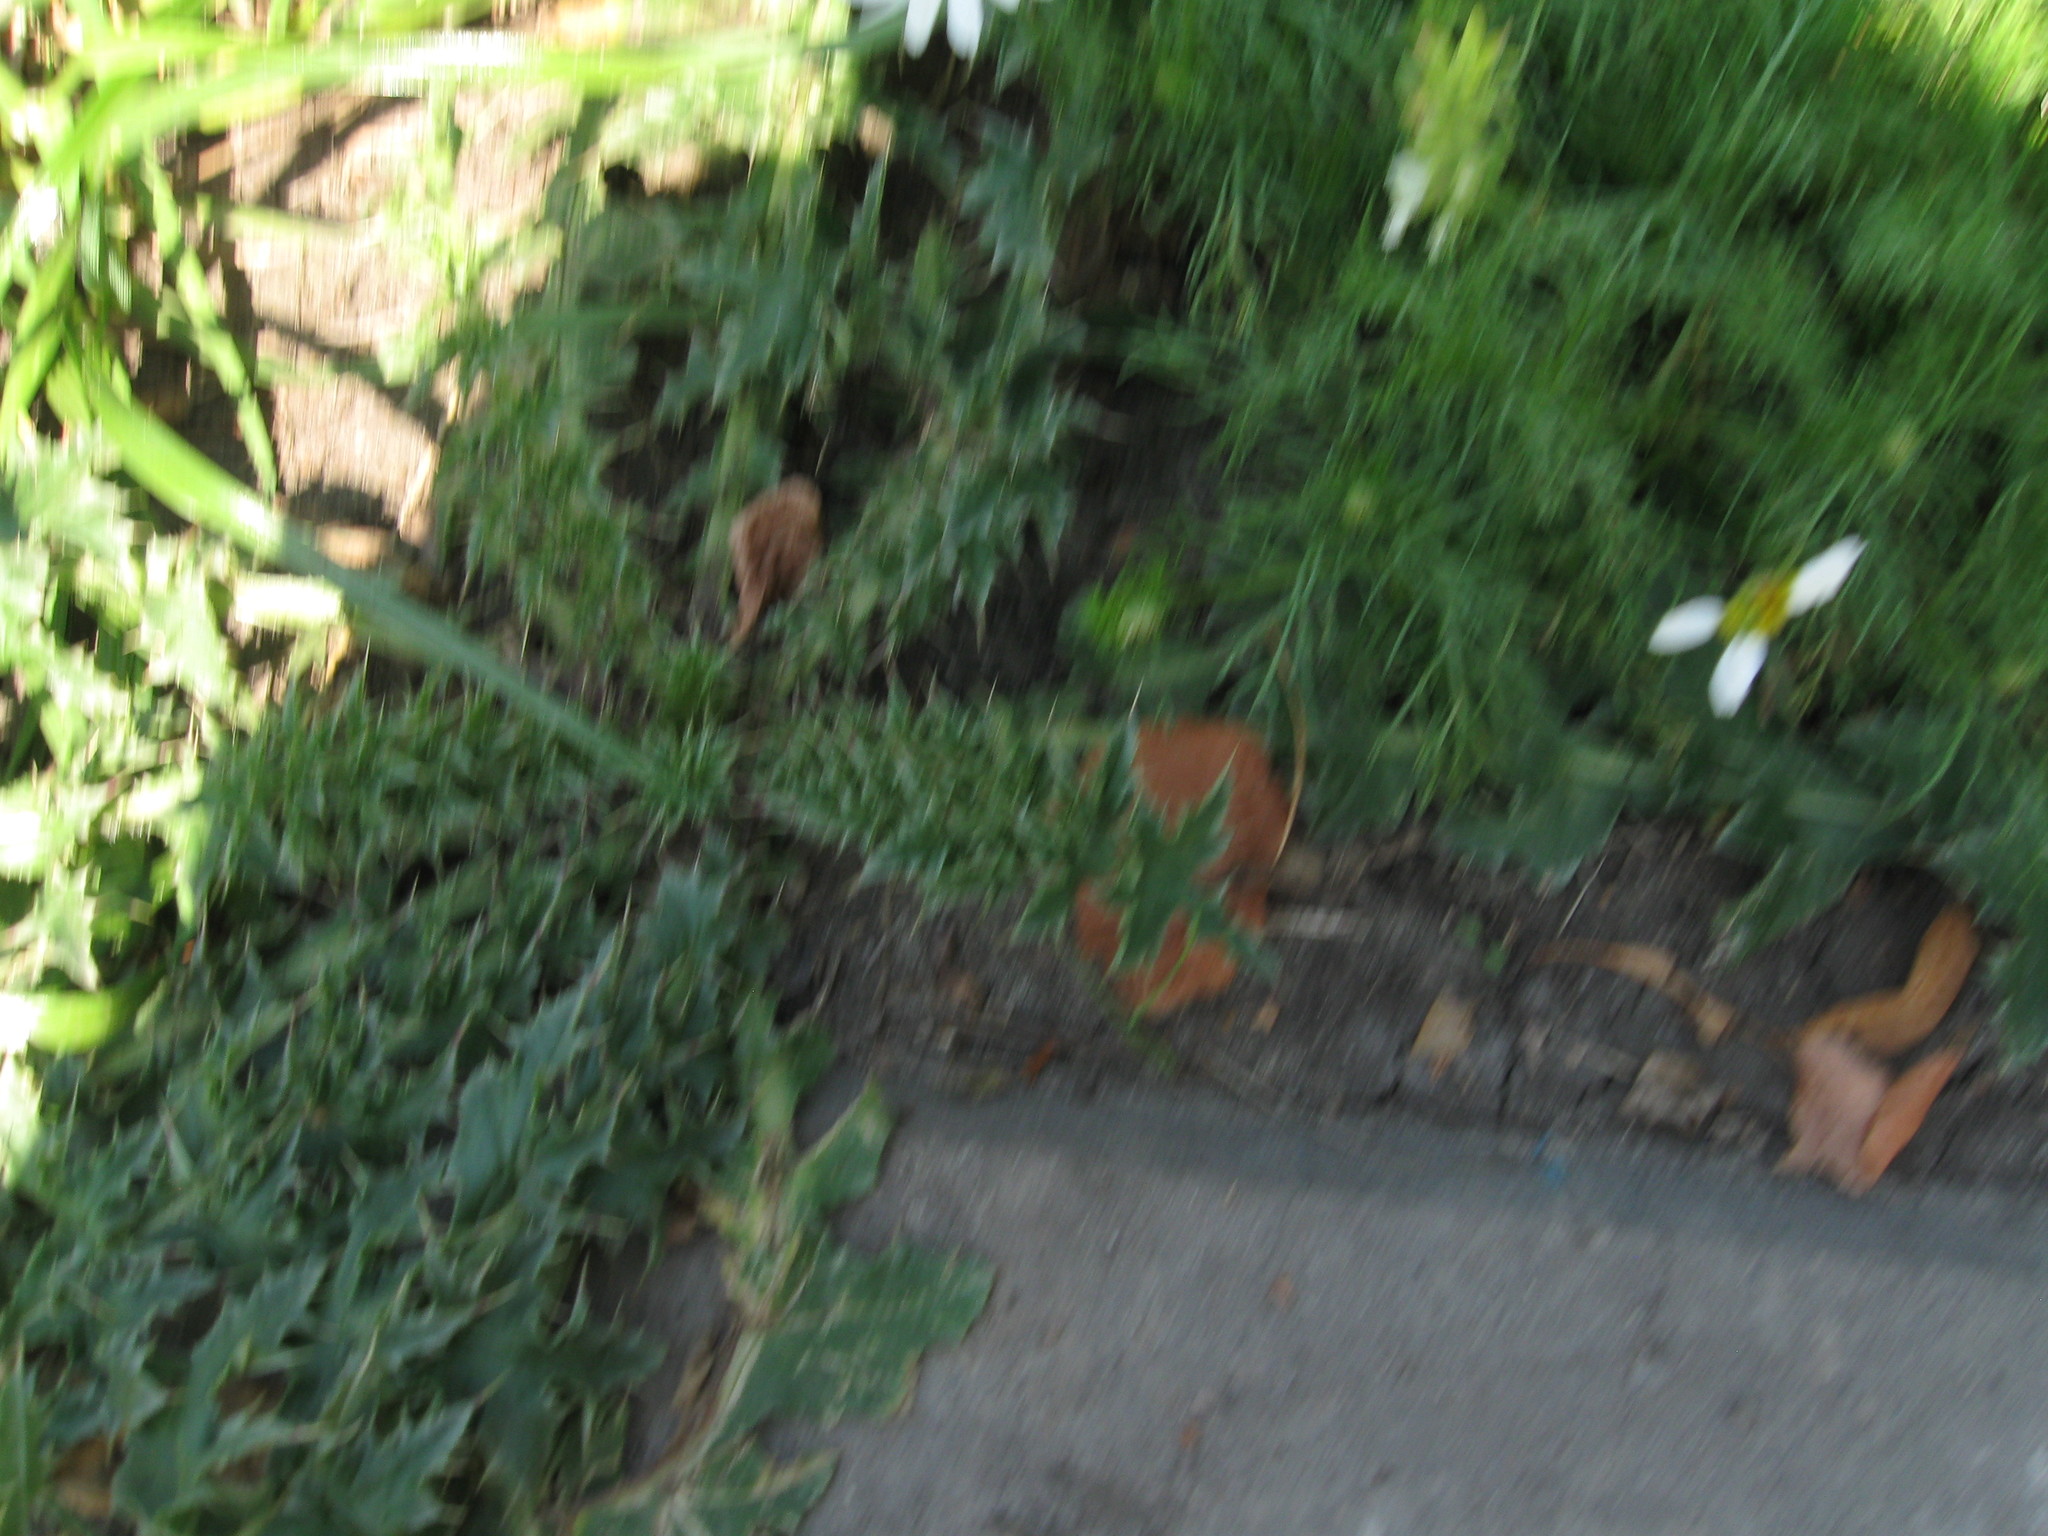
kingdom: Plantae
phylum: Tracheophyta
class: Magnoliopsida
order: Asterales
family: Asteraceae
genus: Carduus
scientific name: Carduus acanthoides
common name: Plumeless thistle
